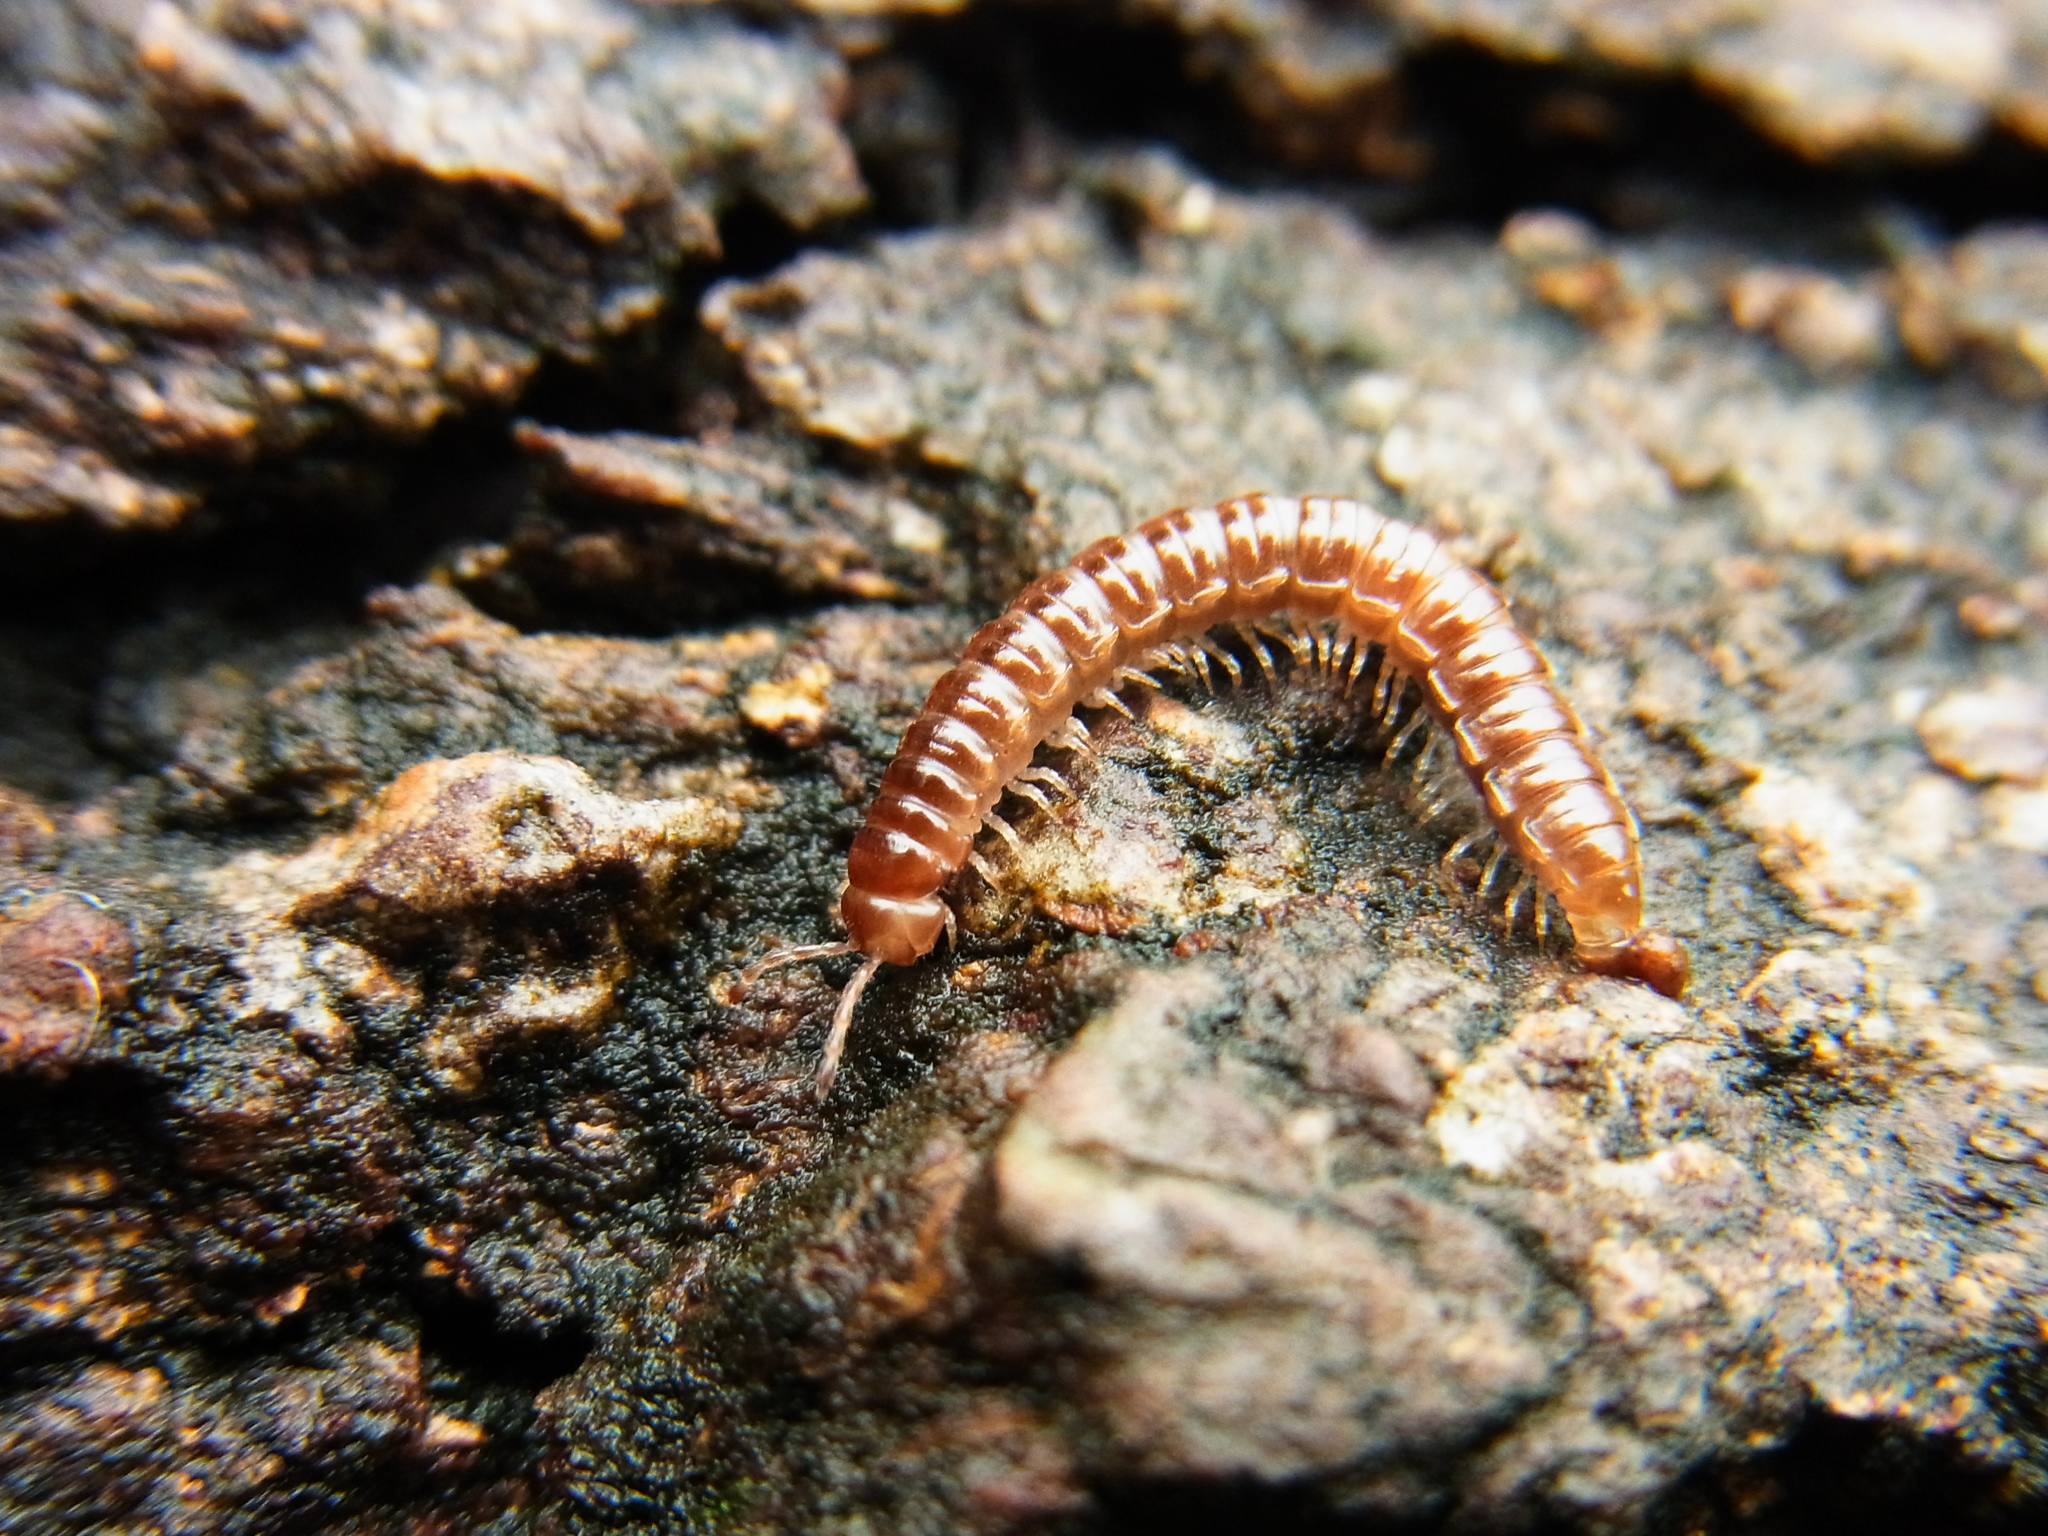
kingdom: Animalia
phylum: Arthropoda
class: Diplopoda
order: Polydesmida
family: Paradoxosomatidae
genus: Oxidus
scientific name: Oxidus gracilis
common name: Greenhouse millipede
